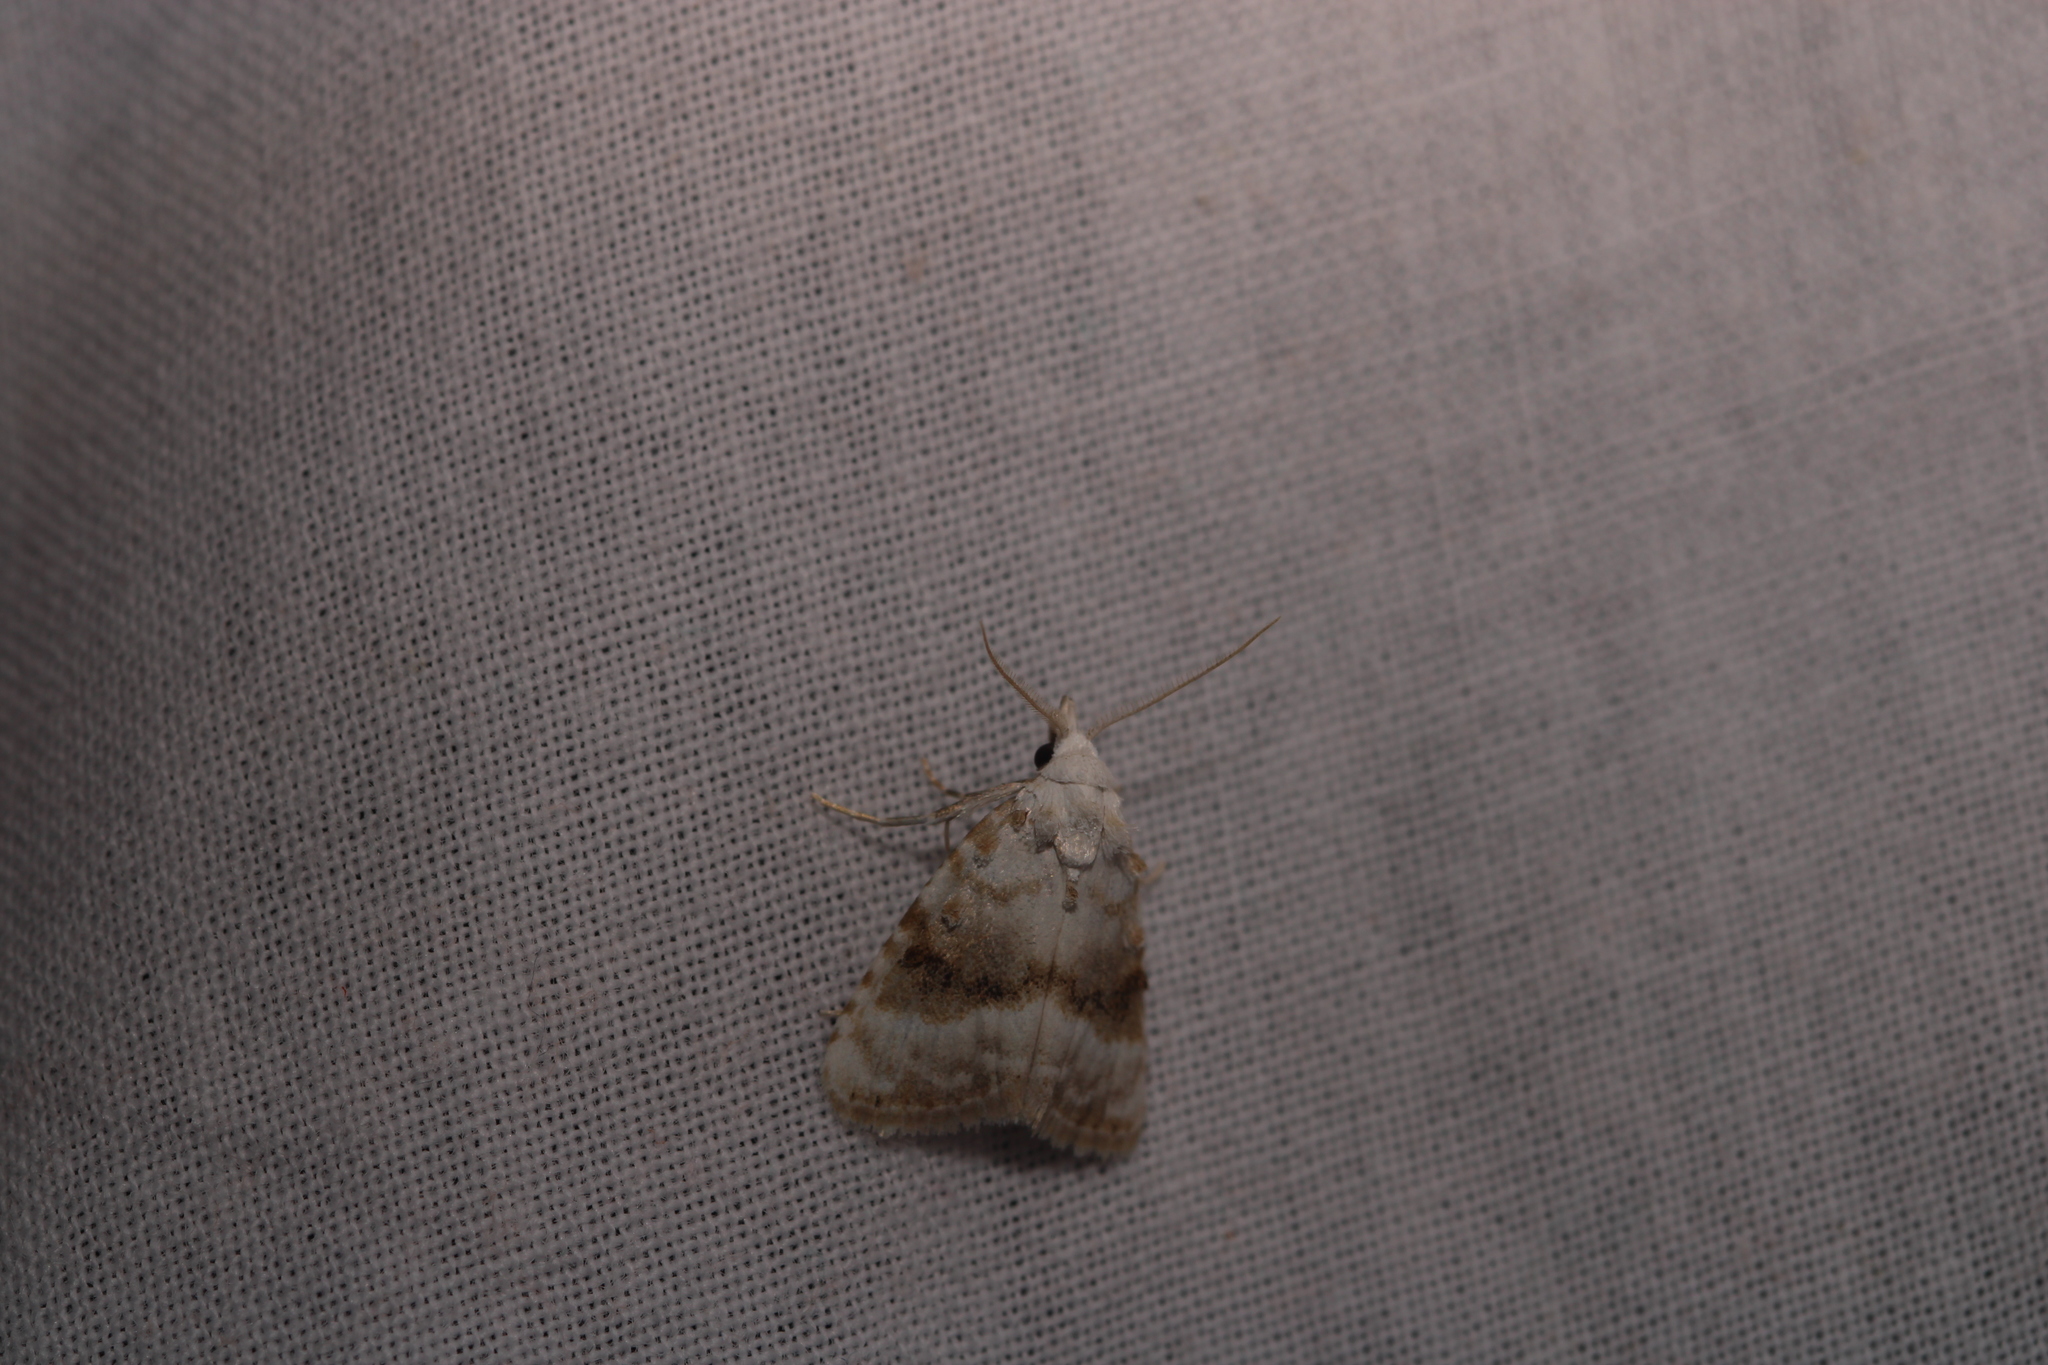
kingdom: Animalia
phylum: Arthropoda
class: Insecta
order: Lepidoptera
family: Nolidae
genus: Meganola
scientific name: Meganola albula
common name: Kent black arches
